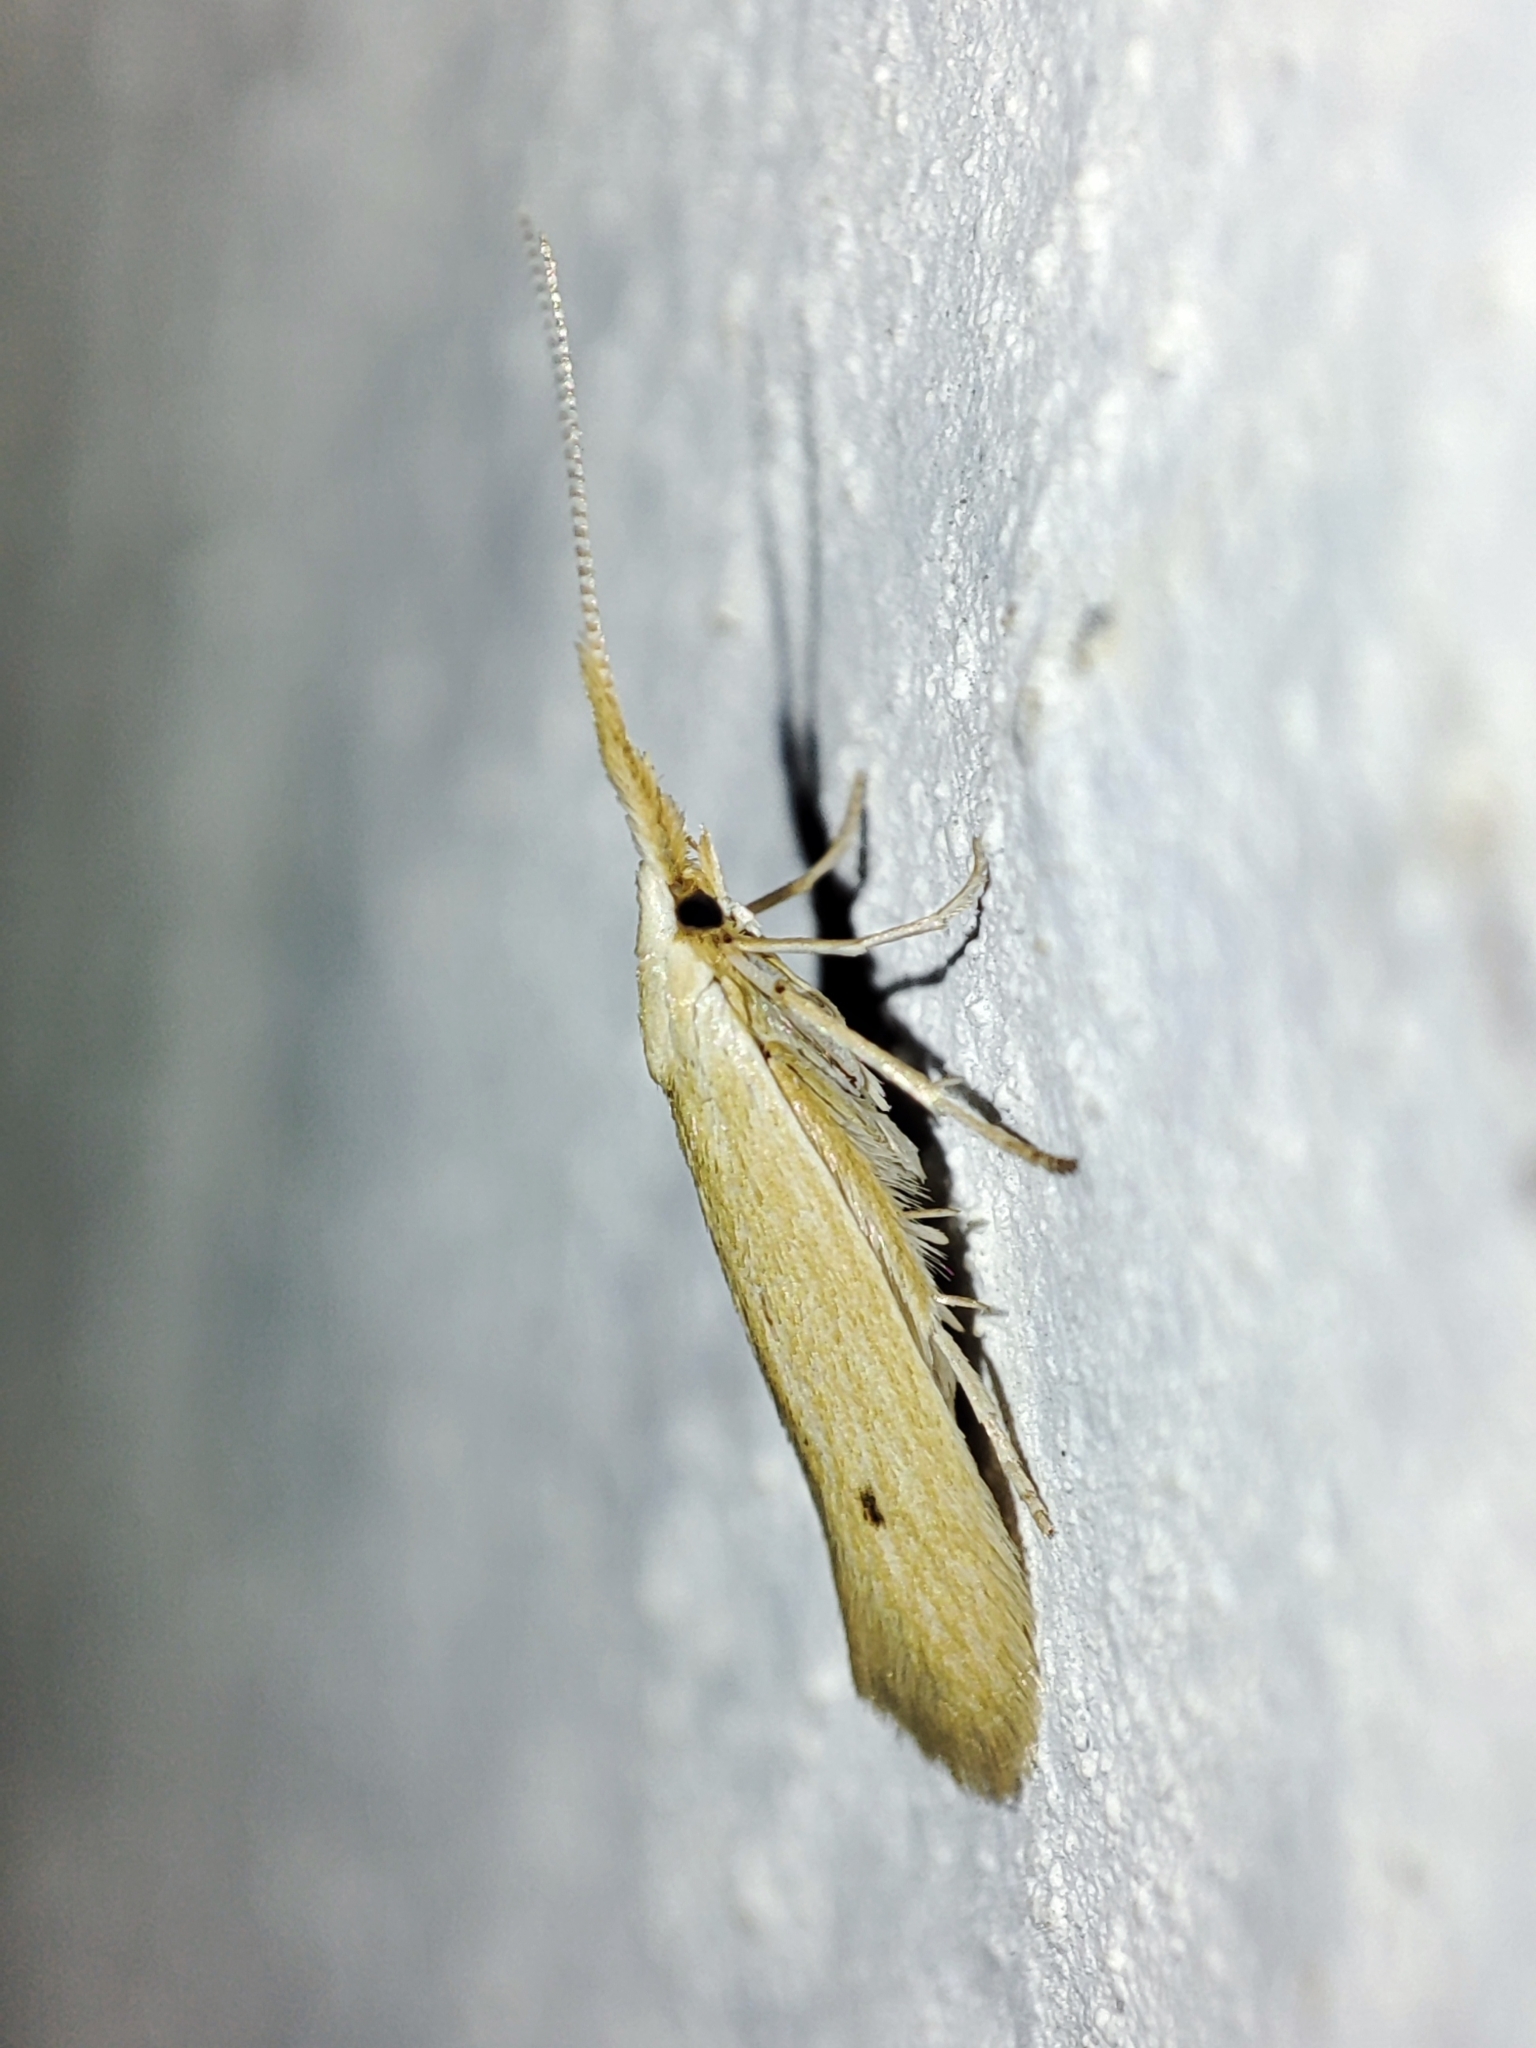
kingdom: Animalia
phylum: Arthropoda
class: Insecta
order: Lepidoptera
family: Coleophoridae
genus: Coleophora
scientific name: Coleophora serinipennella
